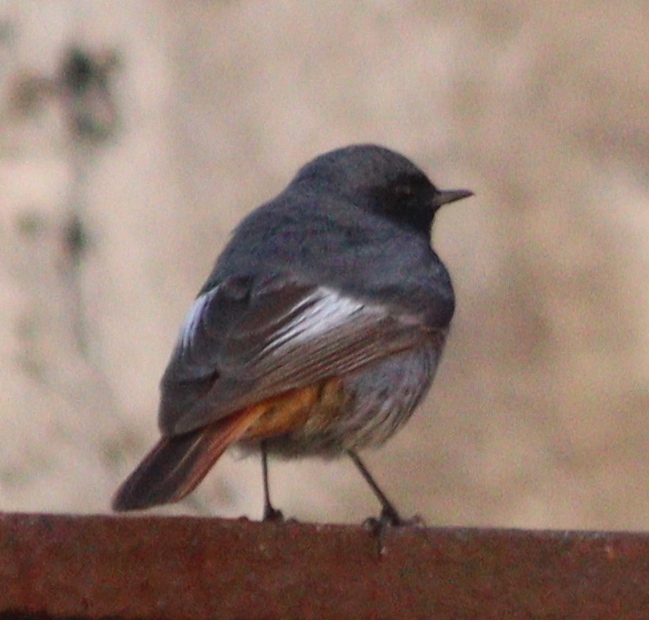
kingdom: Animalia
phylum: Chordata
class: Aves
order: Passeriformes
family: Muscicapidae
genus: Phoenicurus
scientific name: Phoenicurus ochruros
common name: Black redstart
